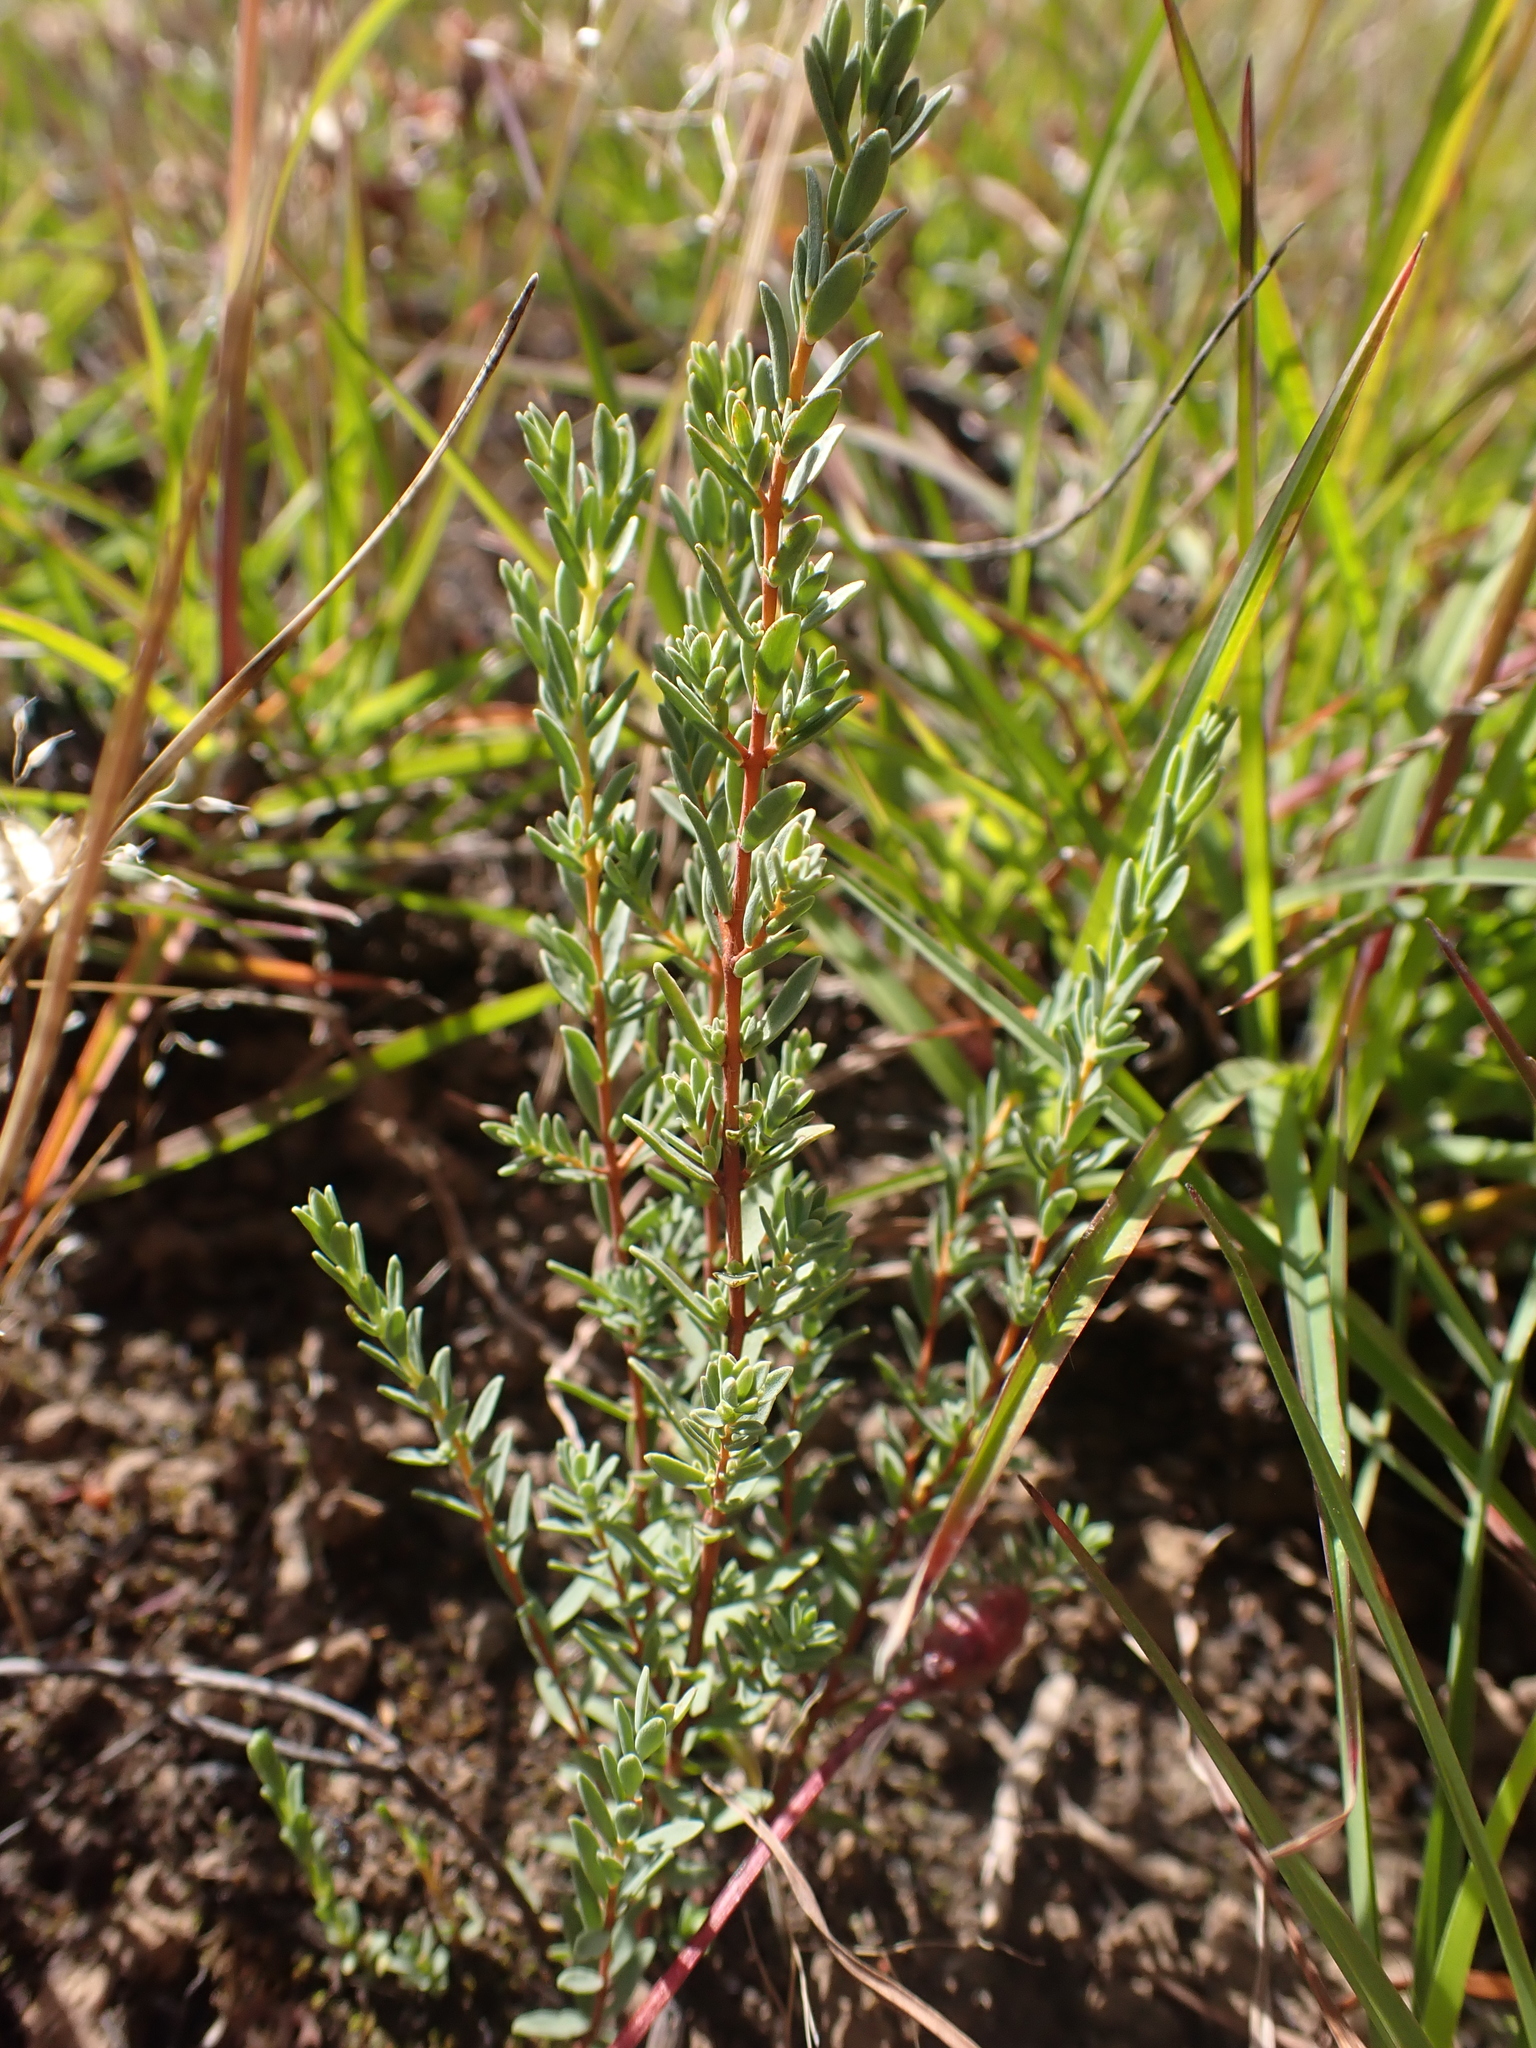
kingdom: Plantae
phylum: Tracheophyta
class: Magnoliopsida
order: Malvales
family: Thymelaeaceae
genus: Pimelea
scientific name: Pimelea glauca
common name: Smooth riceflower
